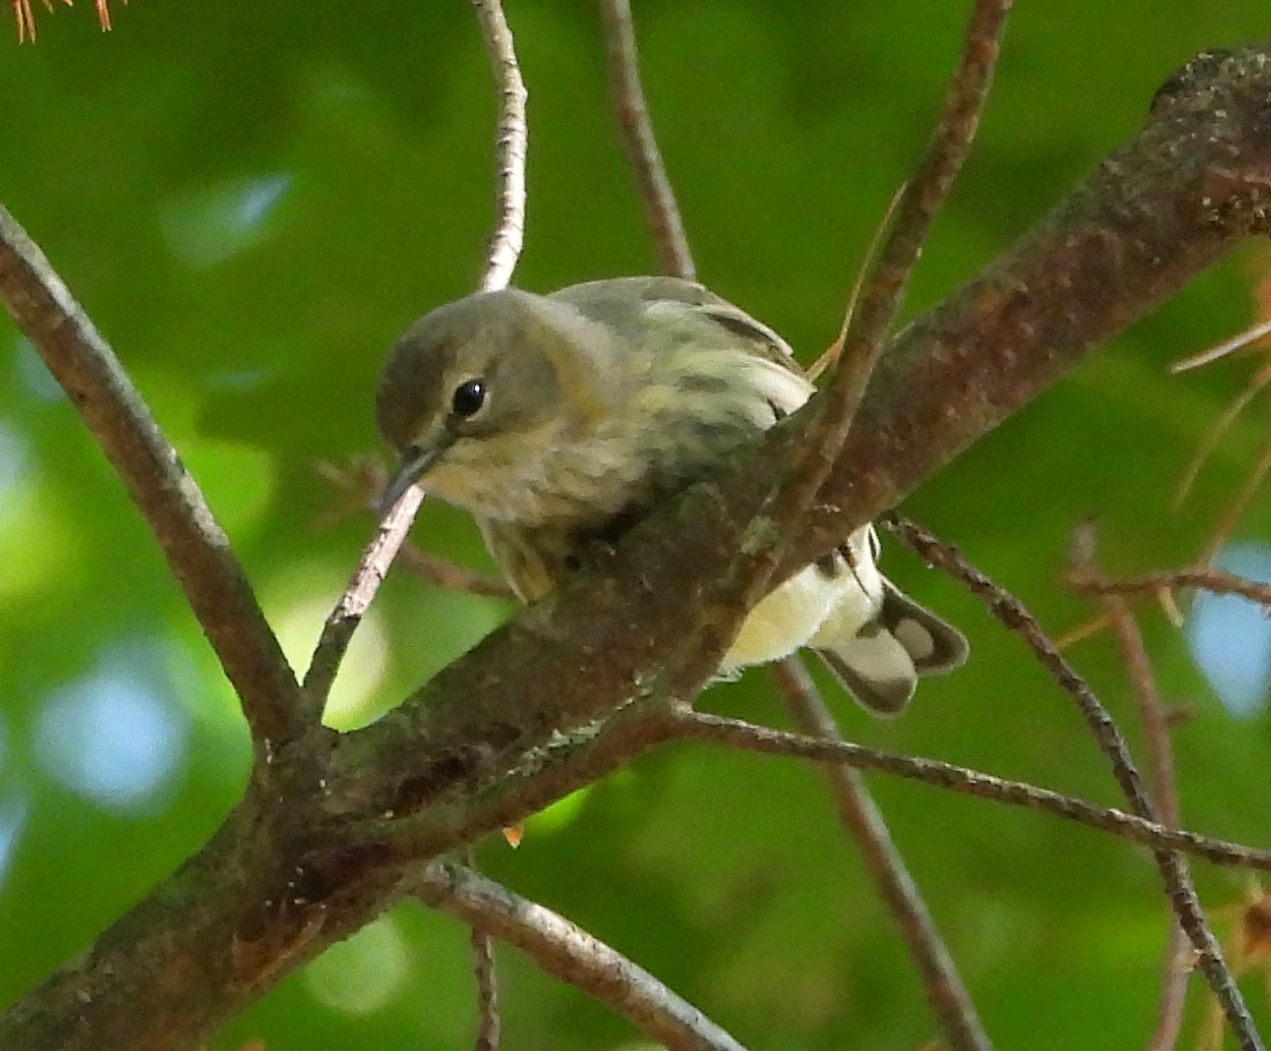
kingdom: Animalia
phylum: Chordata
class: Aves
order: Passeriformes
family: Parulidae
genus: Setophaga
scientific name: Setophaga tigrina
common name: Cape may warbler
